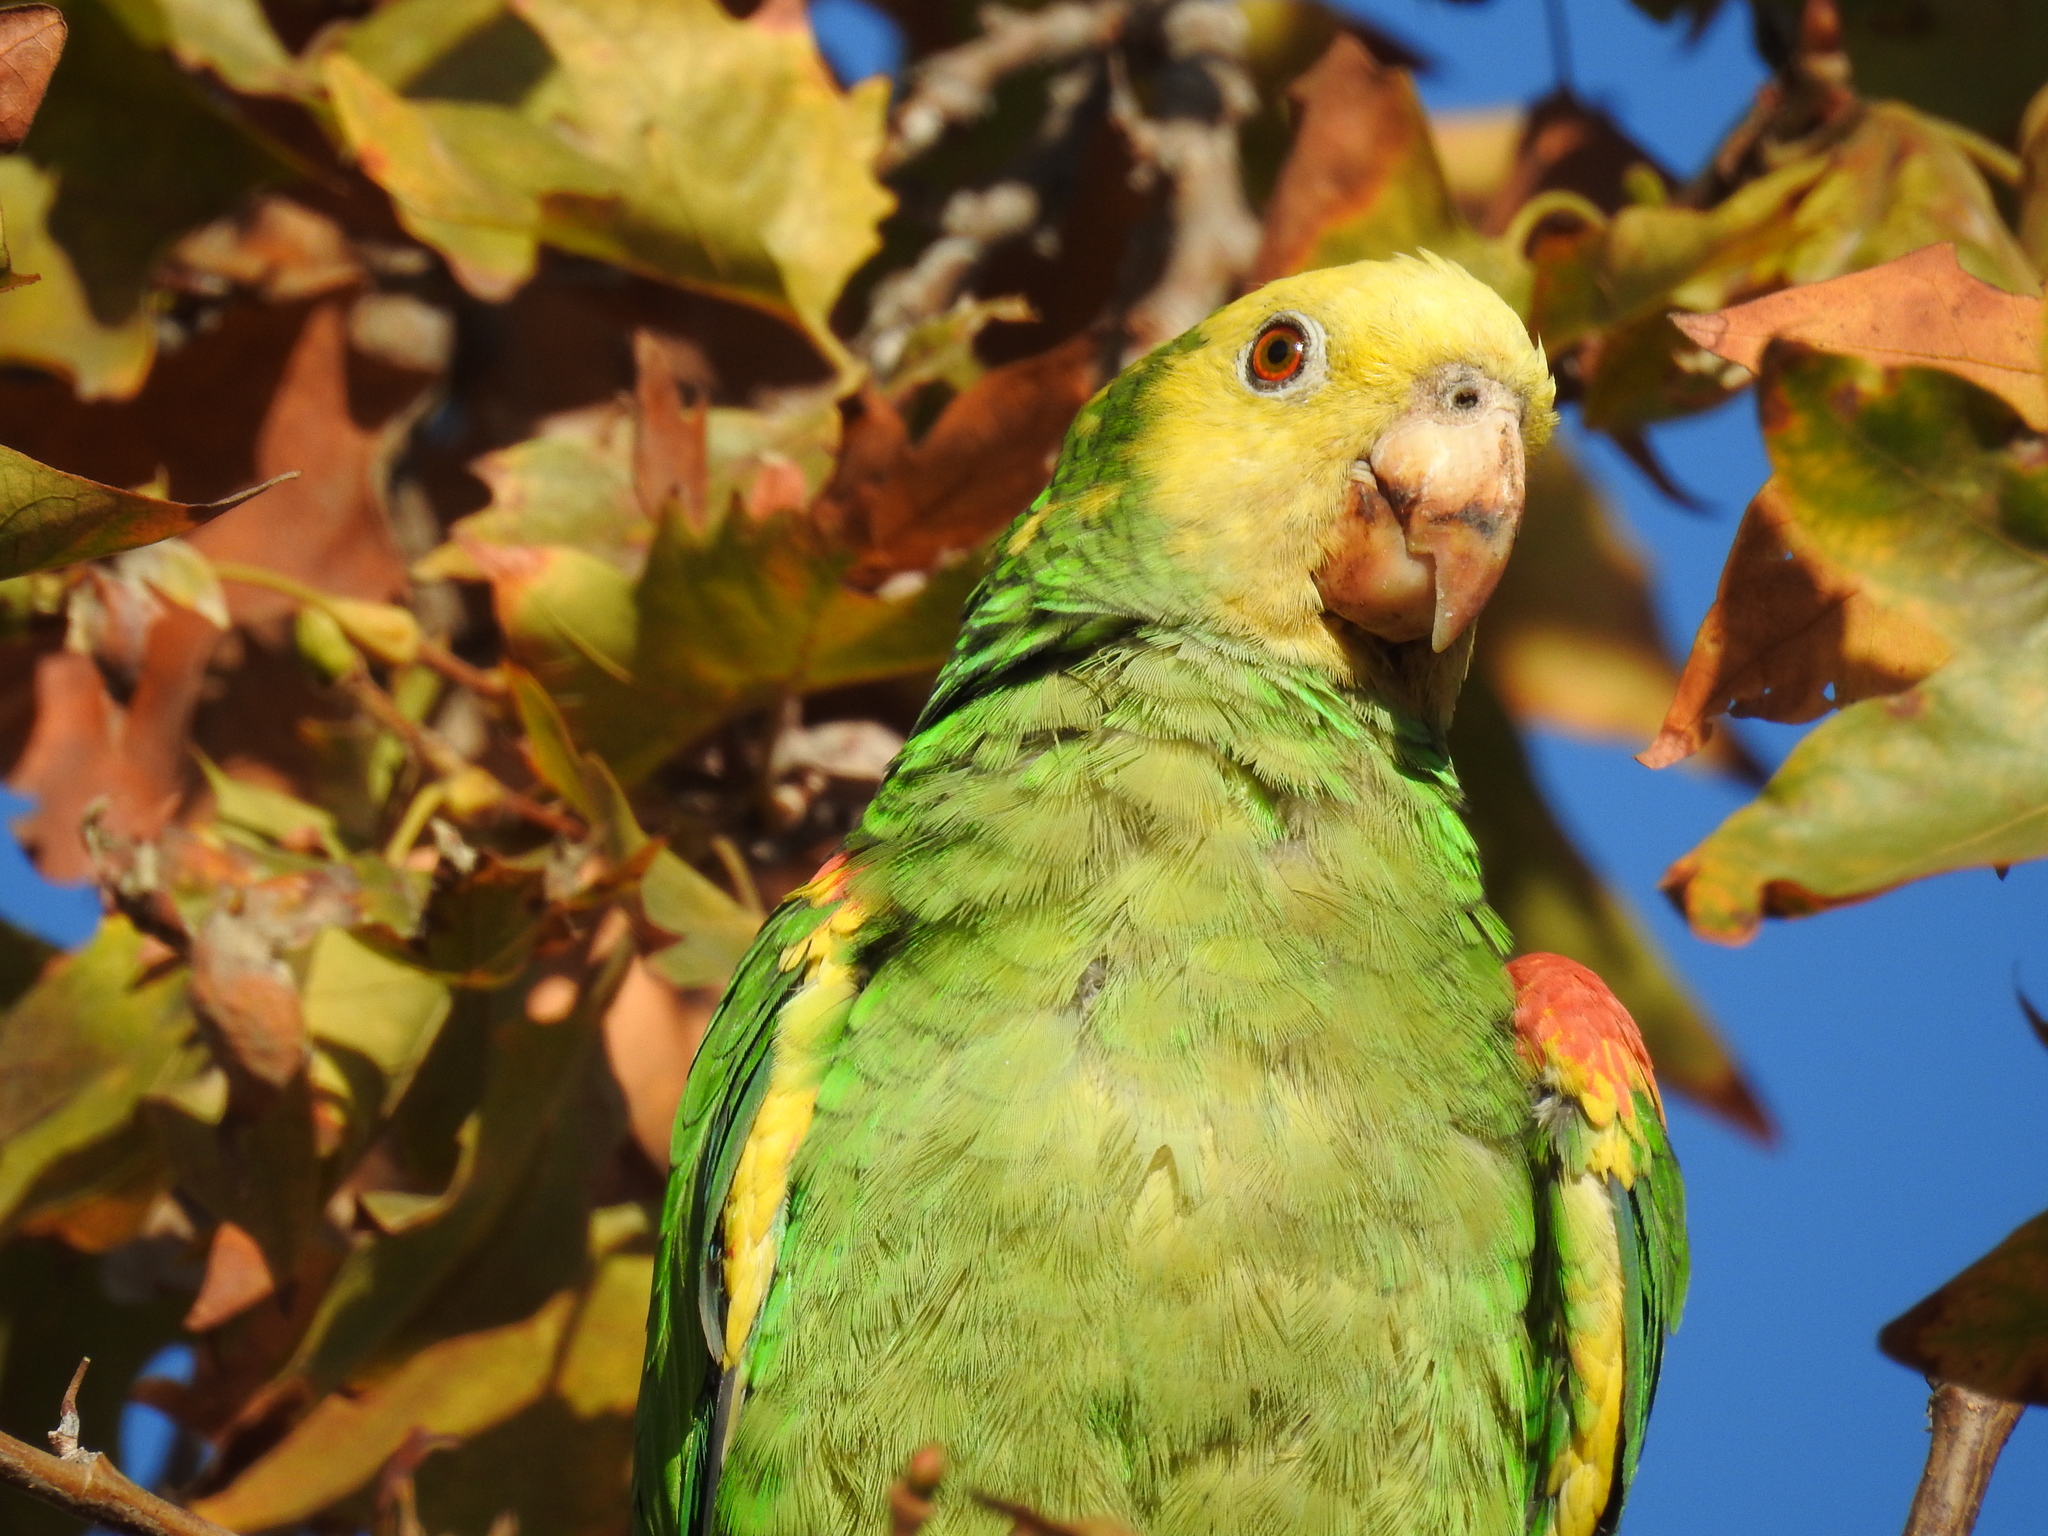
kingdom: Animalia
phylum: Chordata
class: Aves
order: Psittaciformes
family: Psittacidae
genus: Amazona
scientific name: Amazona oratrix
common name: Yellow-headed amazon
